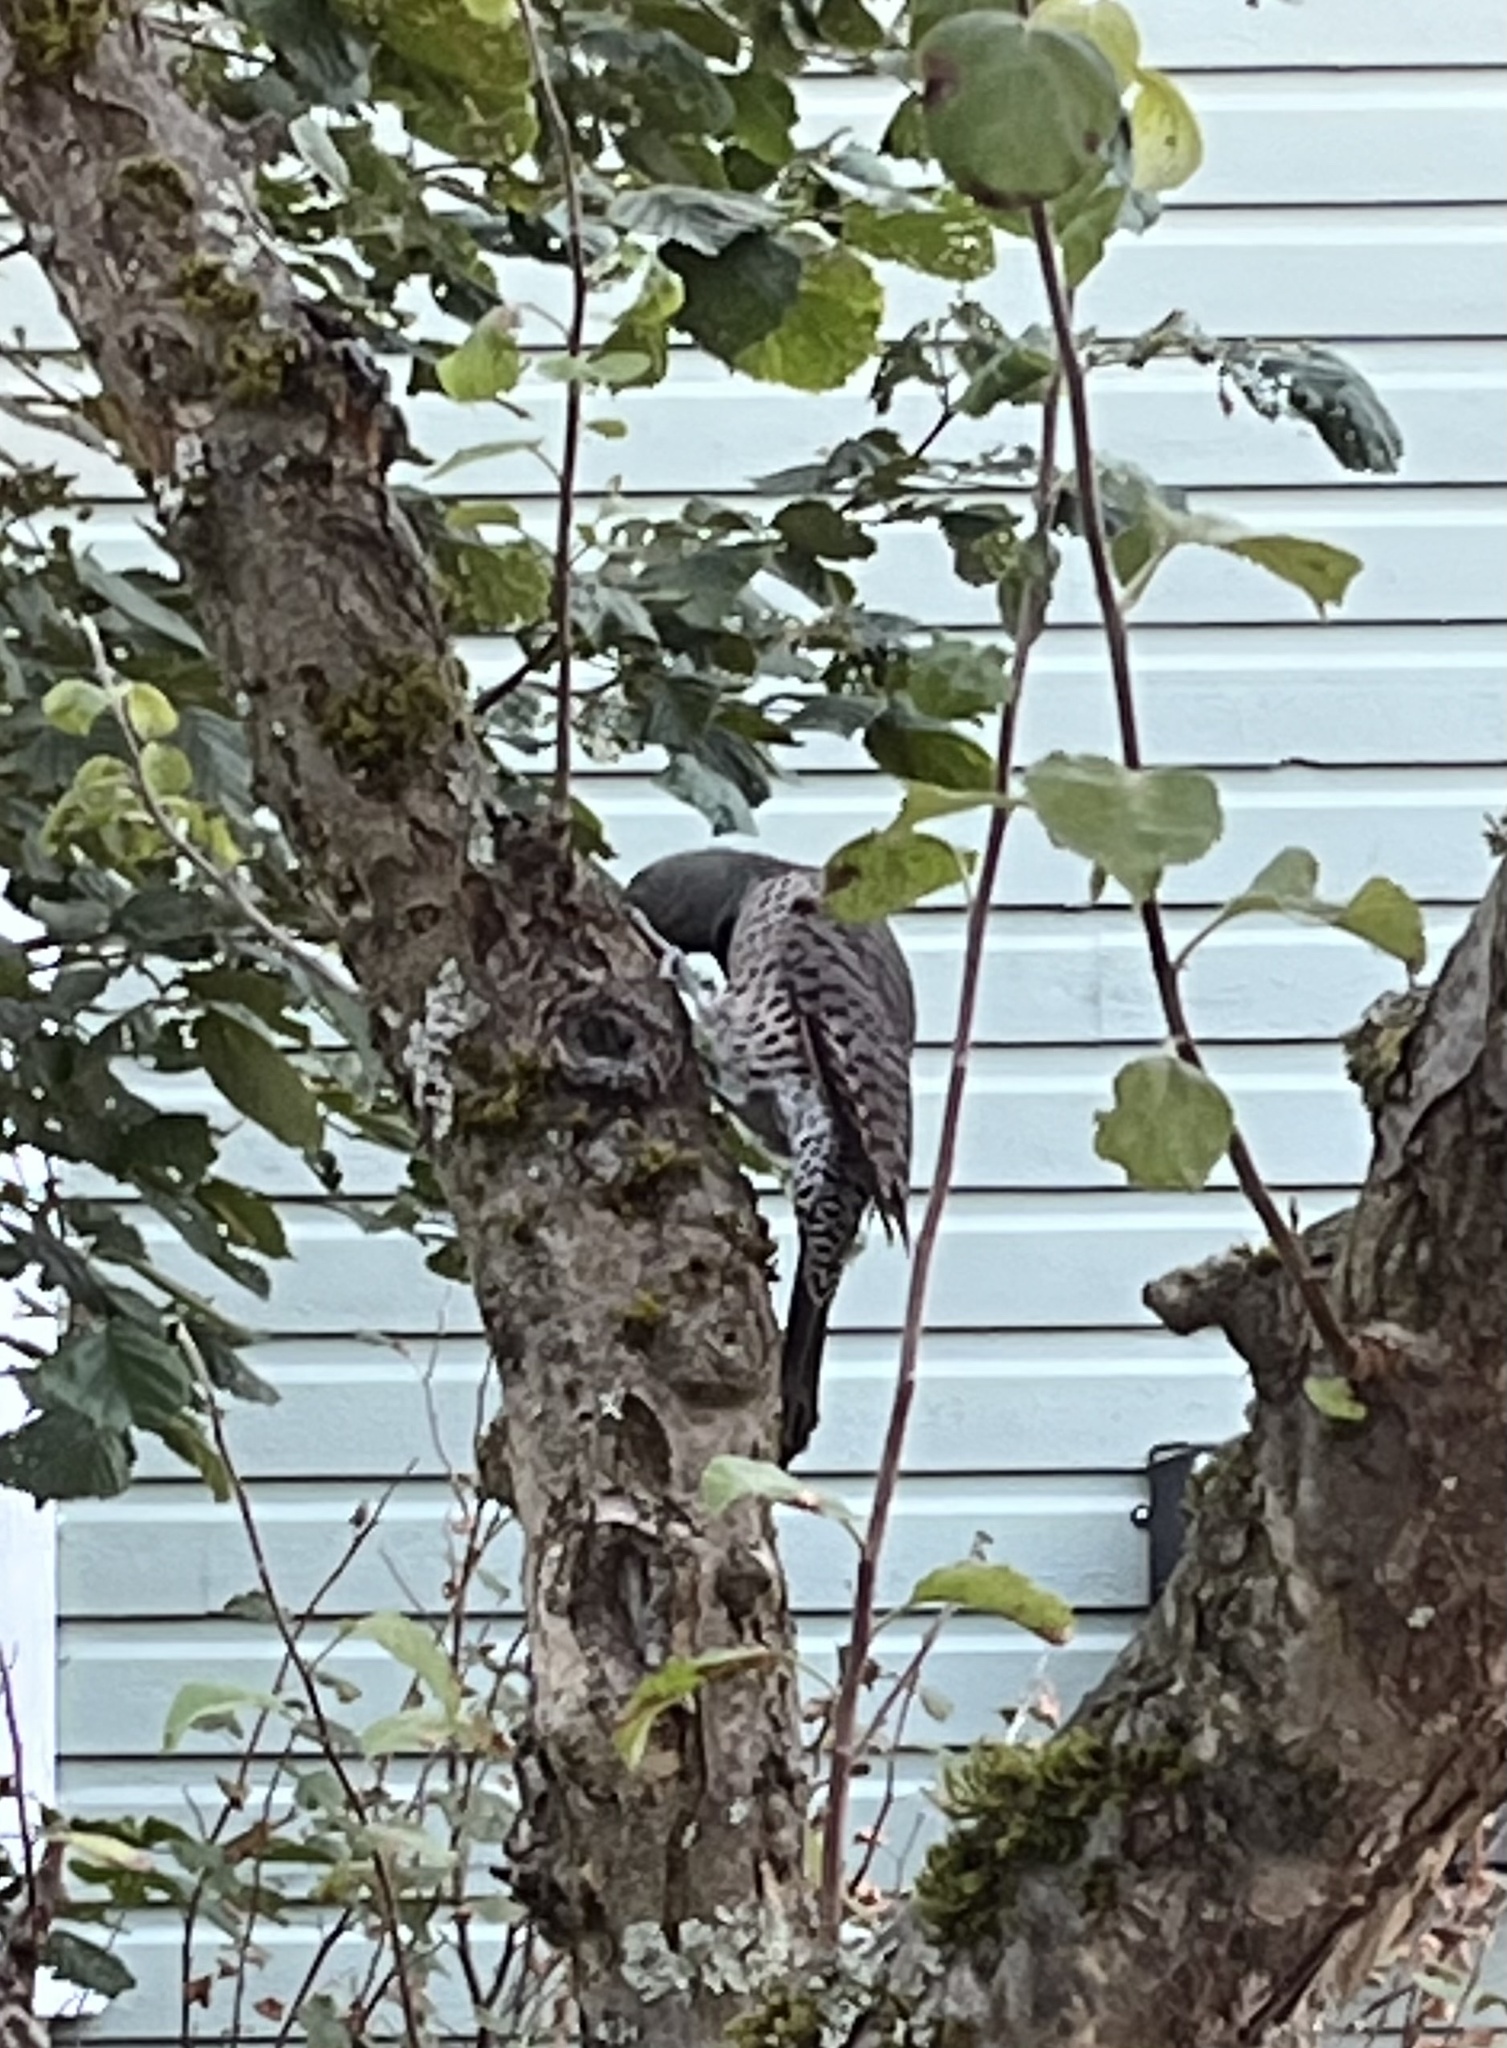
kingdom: Animalia
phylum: Chordata
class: Aves
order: Piciformes
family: Picidae
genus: Colaptes
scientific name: Colaptes auratus
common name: Northern flicker
